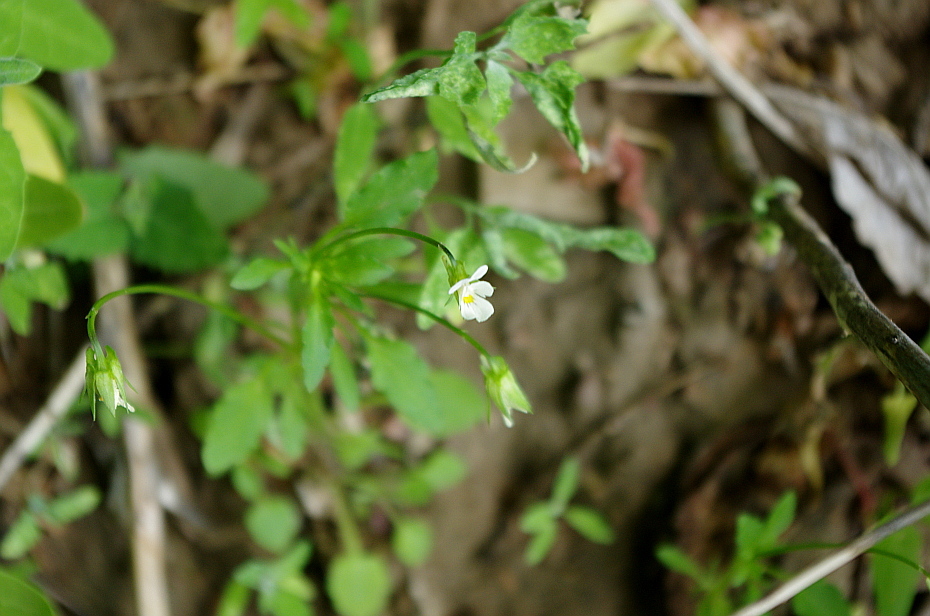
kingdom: Plantae
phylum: Tracheophyta
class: Magnoliopsida
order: Malpighiales
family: Violaceae
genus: Viola
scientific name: Viola arvensis
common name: Field pansy
